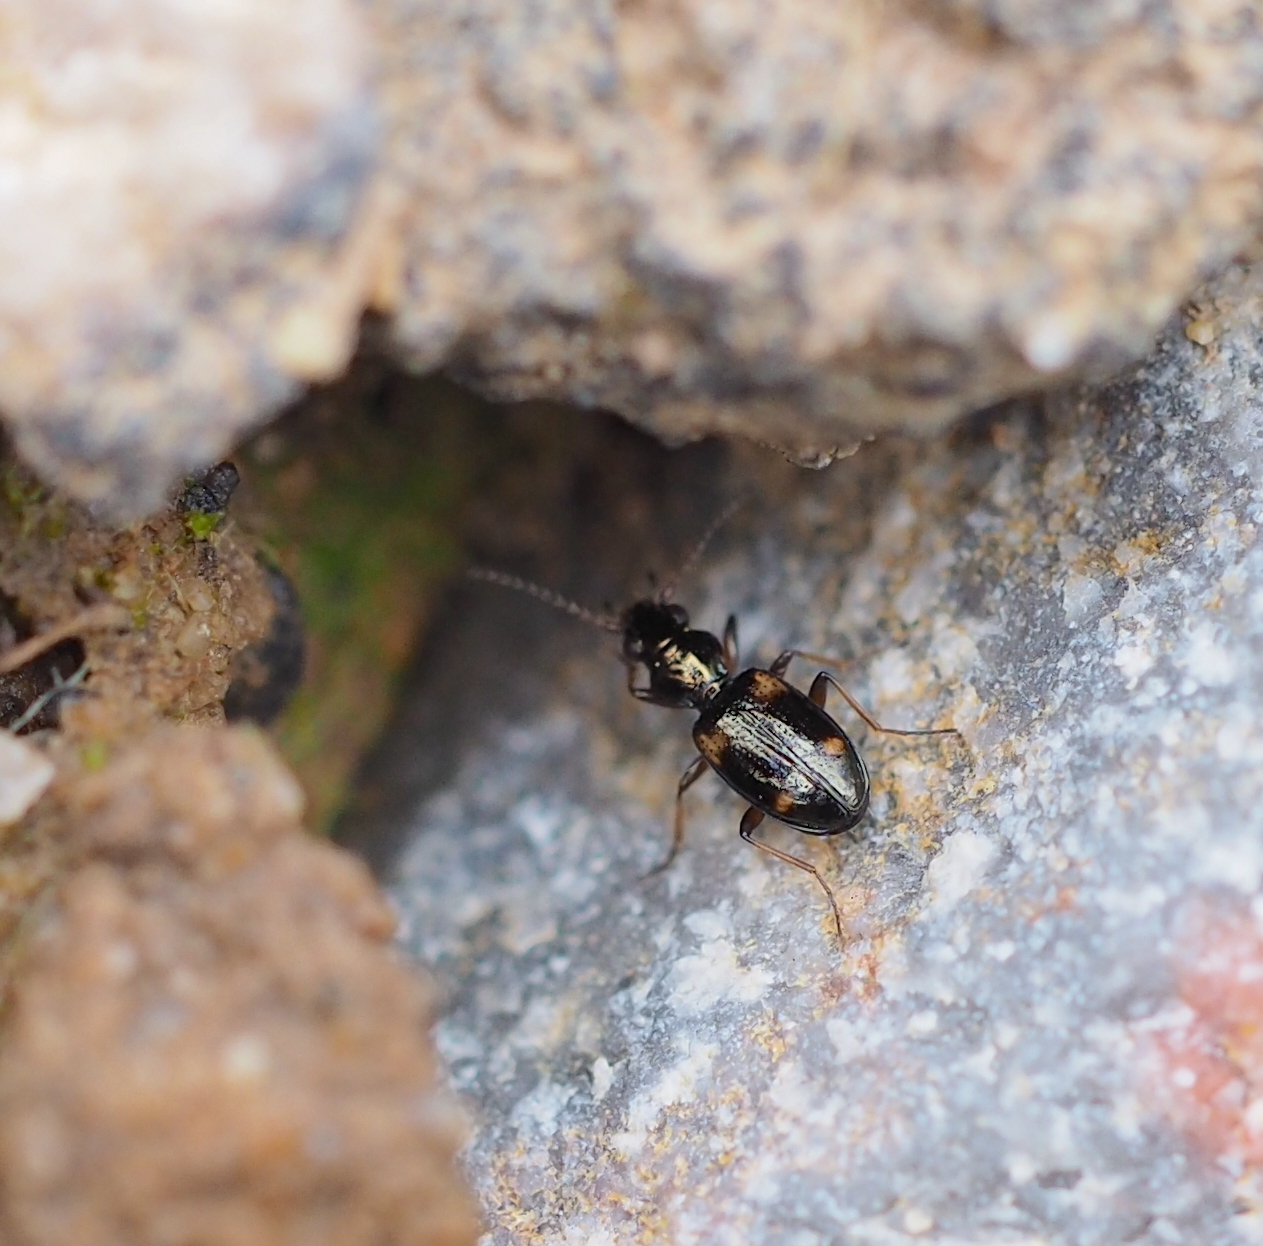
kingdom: Animalia
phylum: Arthropoda
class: Insecta
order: Coleoptera
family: Carabidae
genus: Bembidion
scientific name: Bembidion quadrimaculatum
